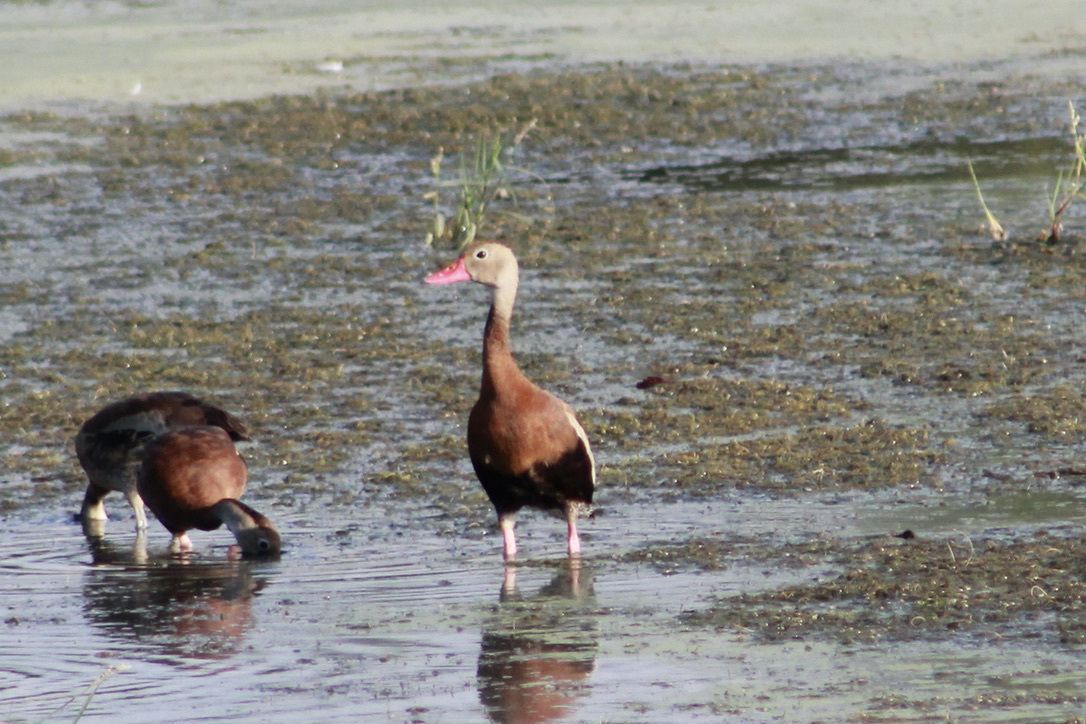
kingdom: Animalia
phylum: Chordata
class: Aves
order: Anseriformes
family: Anatidae
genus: Dendrocygna
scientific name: Dendrocygna autumnalis
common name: Black-bellied whistling duck
